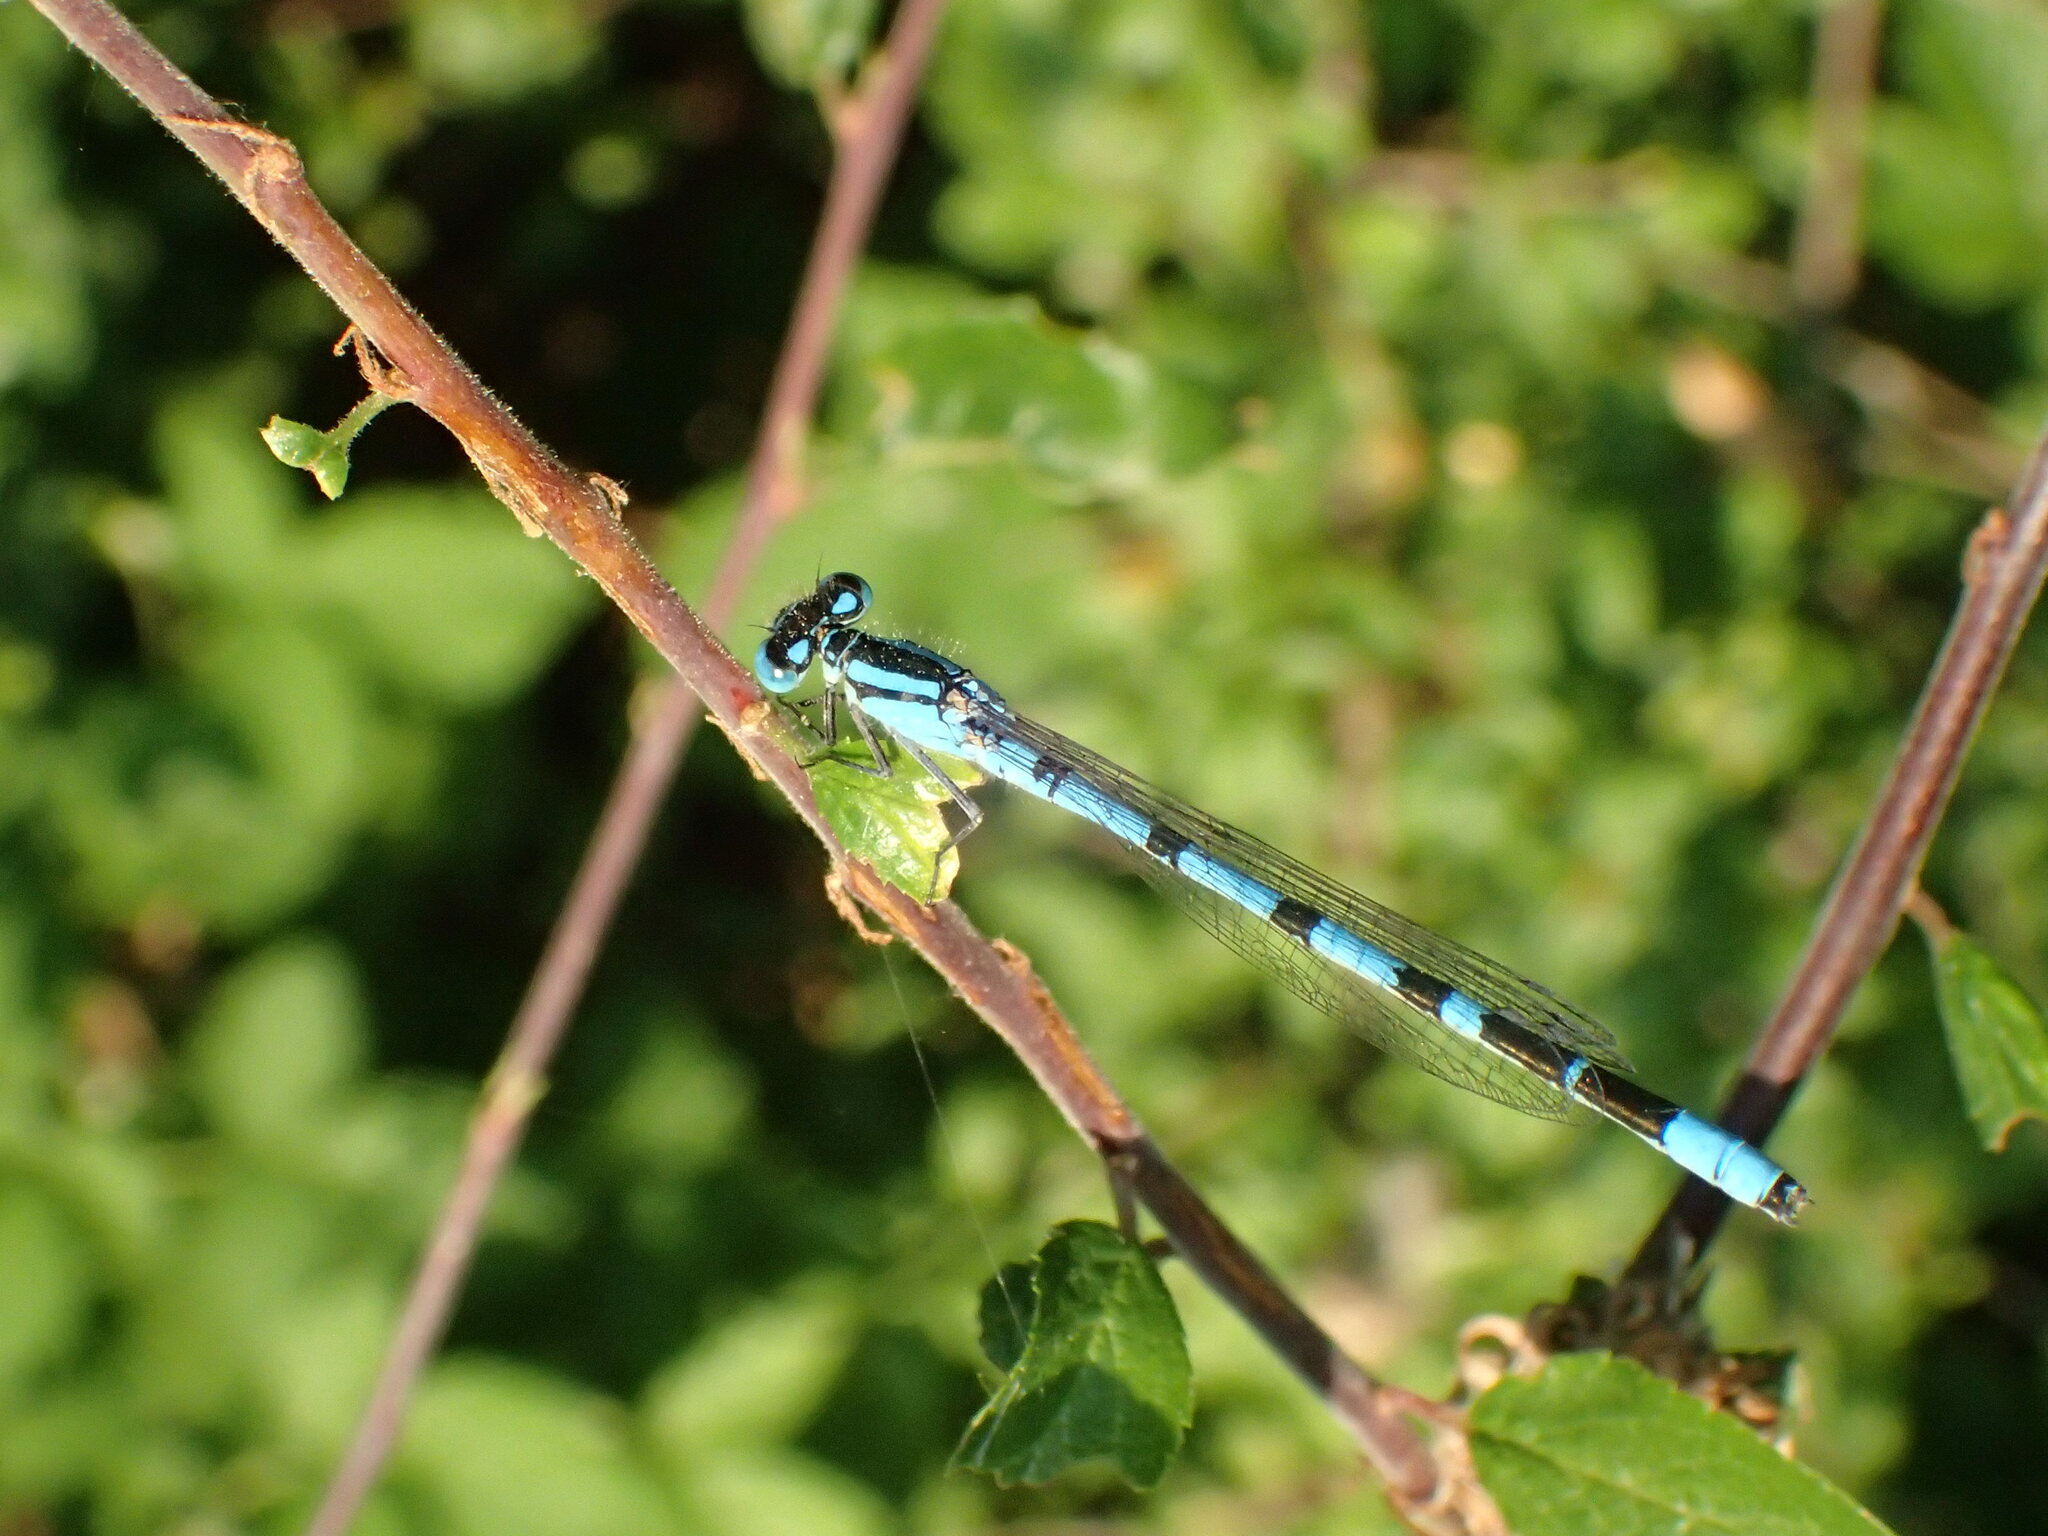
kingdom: Animalia
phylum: Arthropoda
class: Insecta
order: Odonata
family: Coenagrionidae
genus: Enallagma
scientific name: Enallagma cyathigerum
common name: Common blue damselfly
